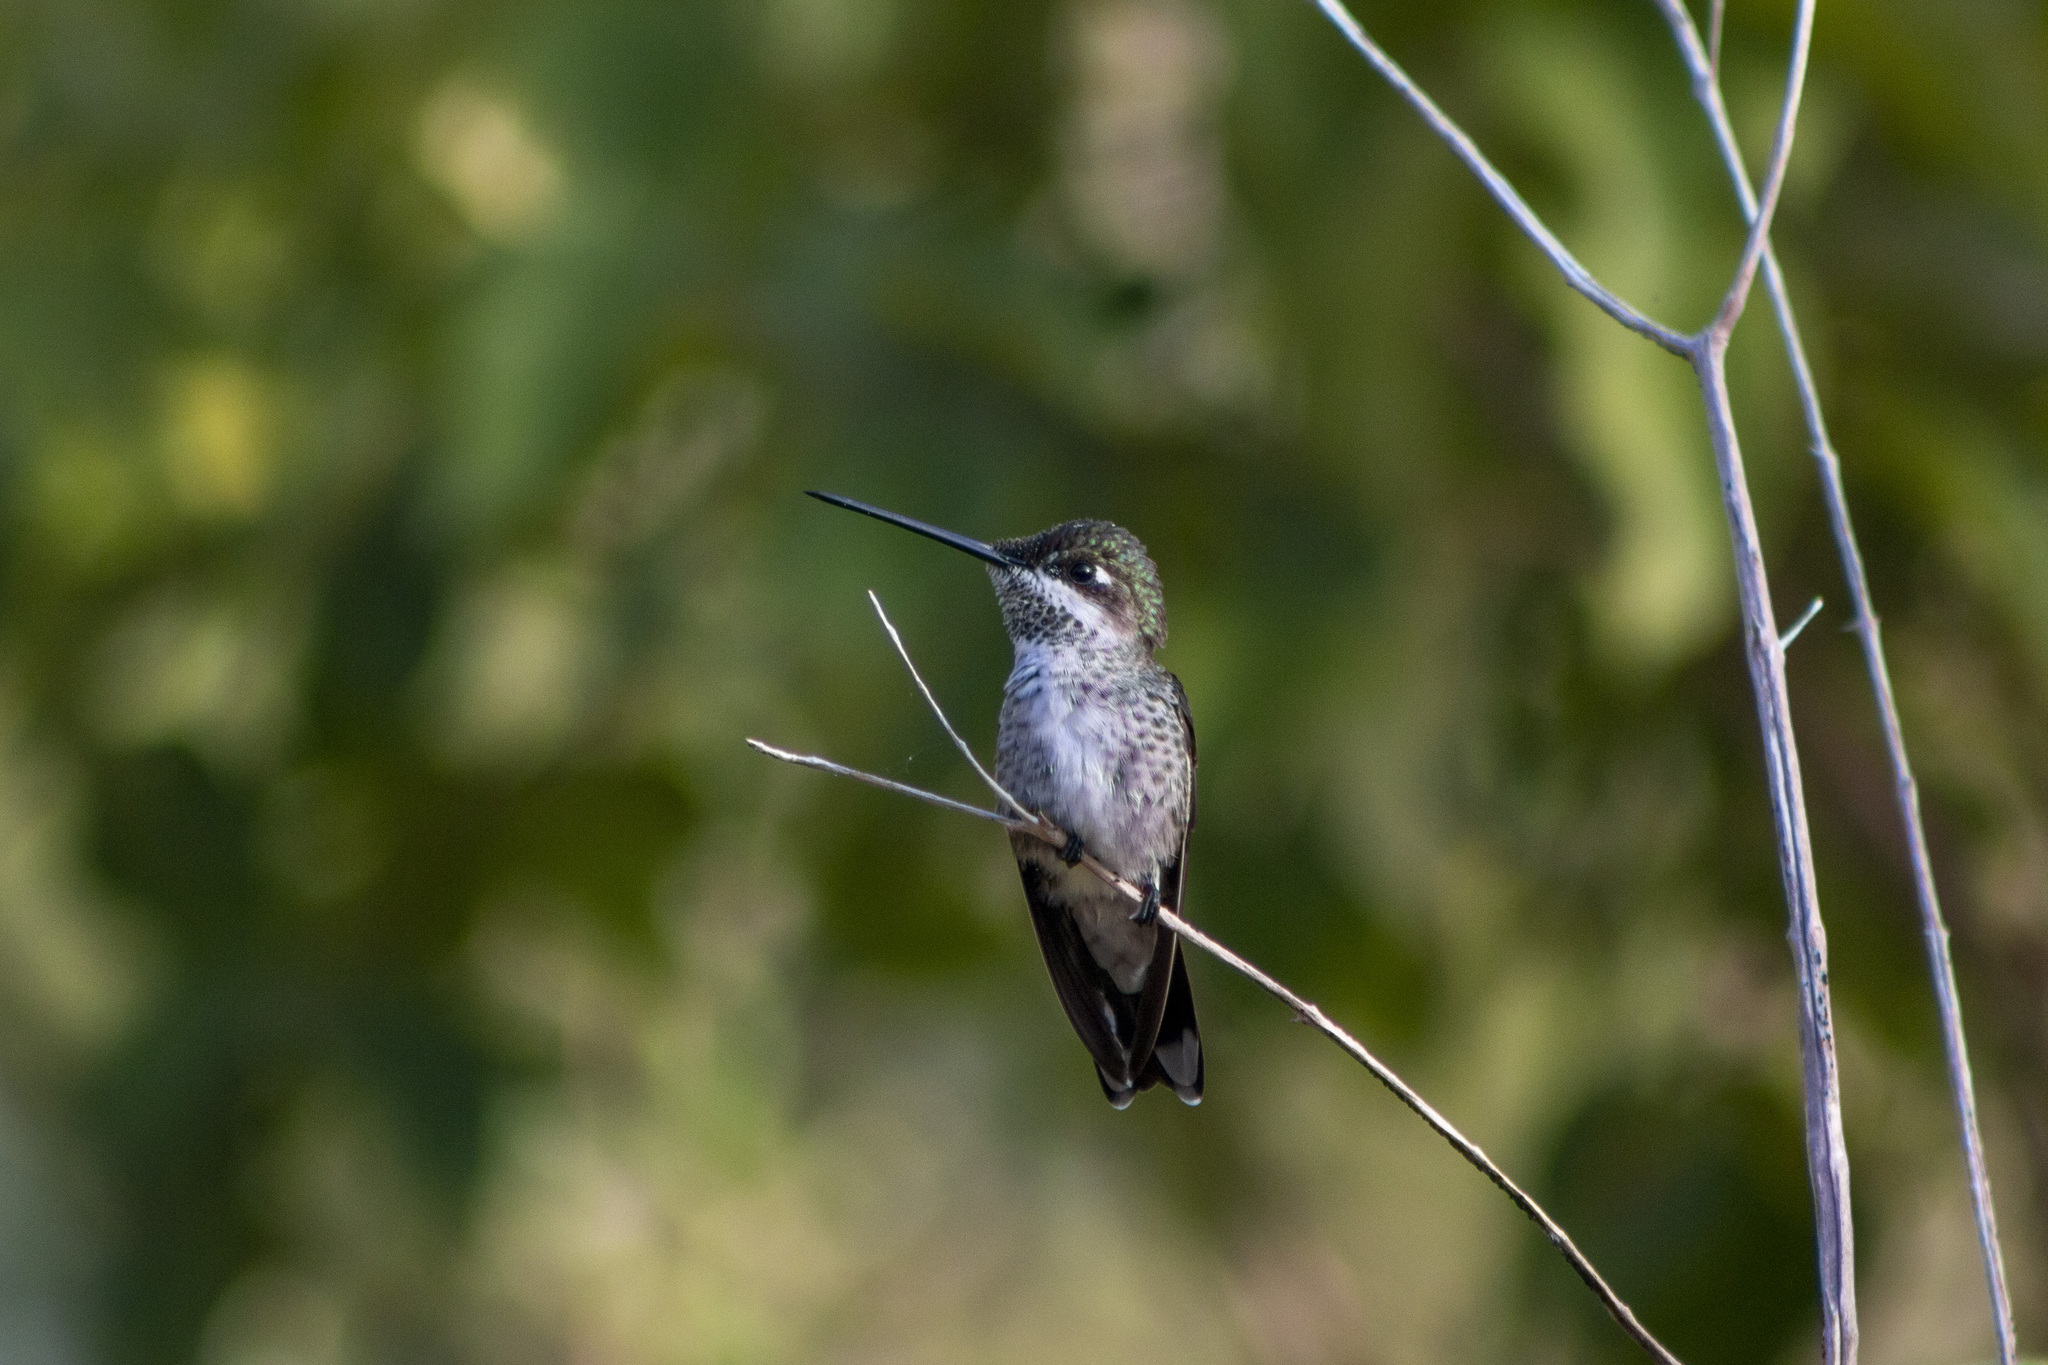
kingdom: Animalia
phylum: Chordata
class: Aves
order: Apodiformes
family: Trochilidae
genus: Heliomaster
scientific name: Heliomaster squamosus
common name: Stripe-breasted starthroat
